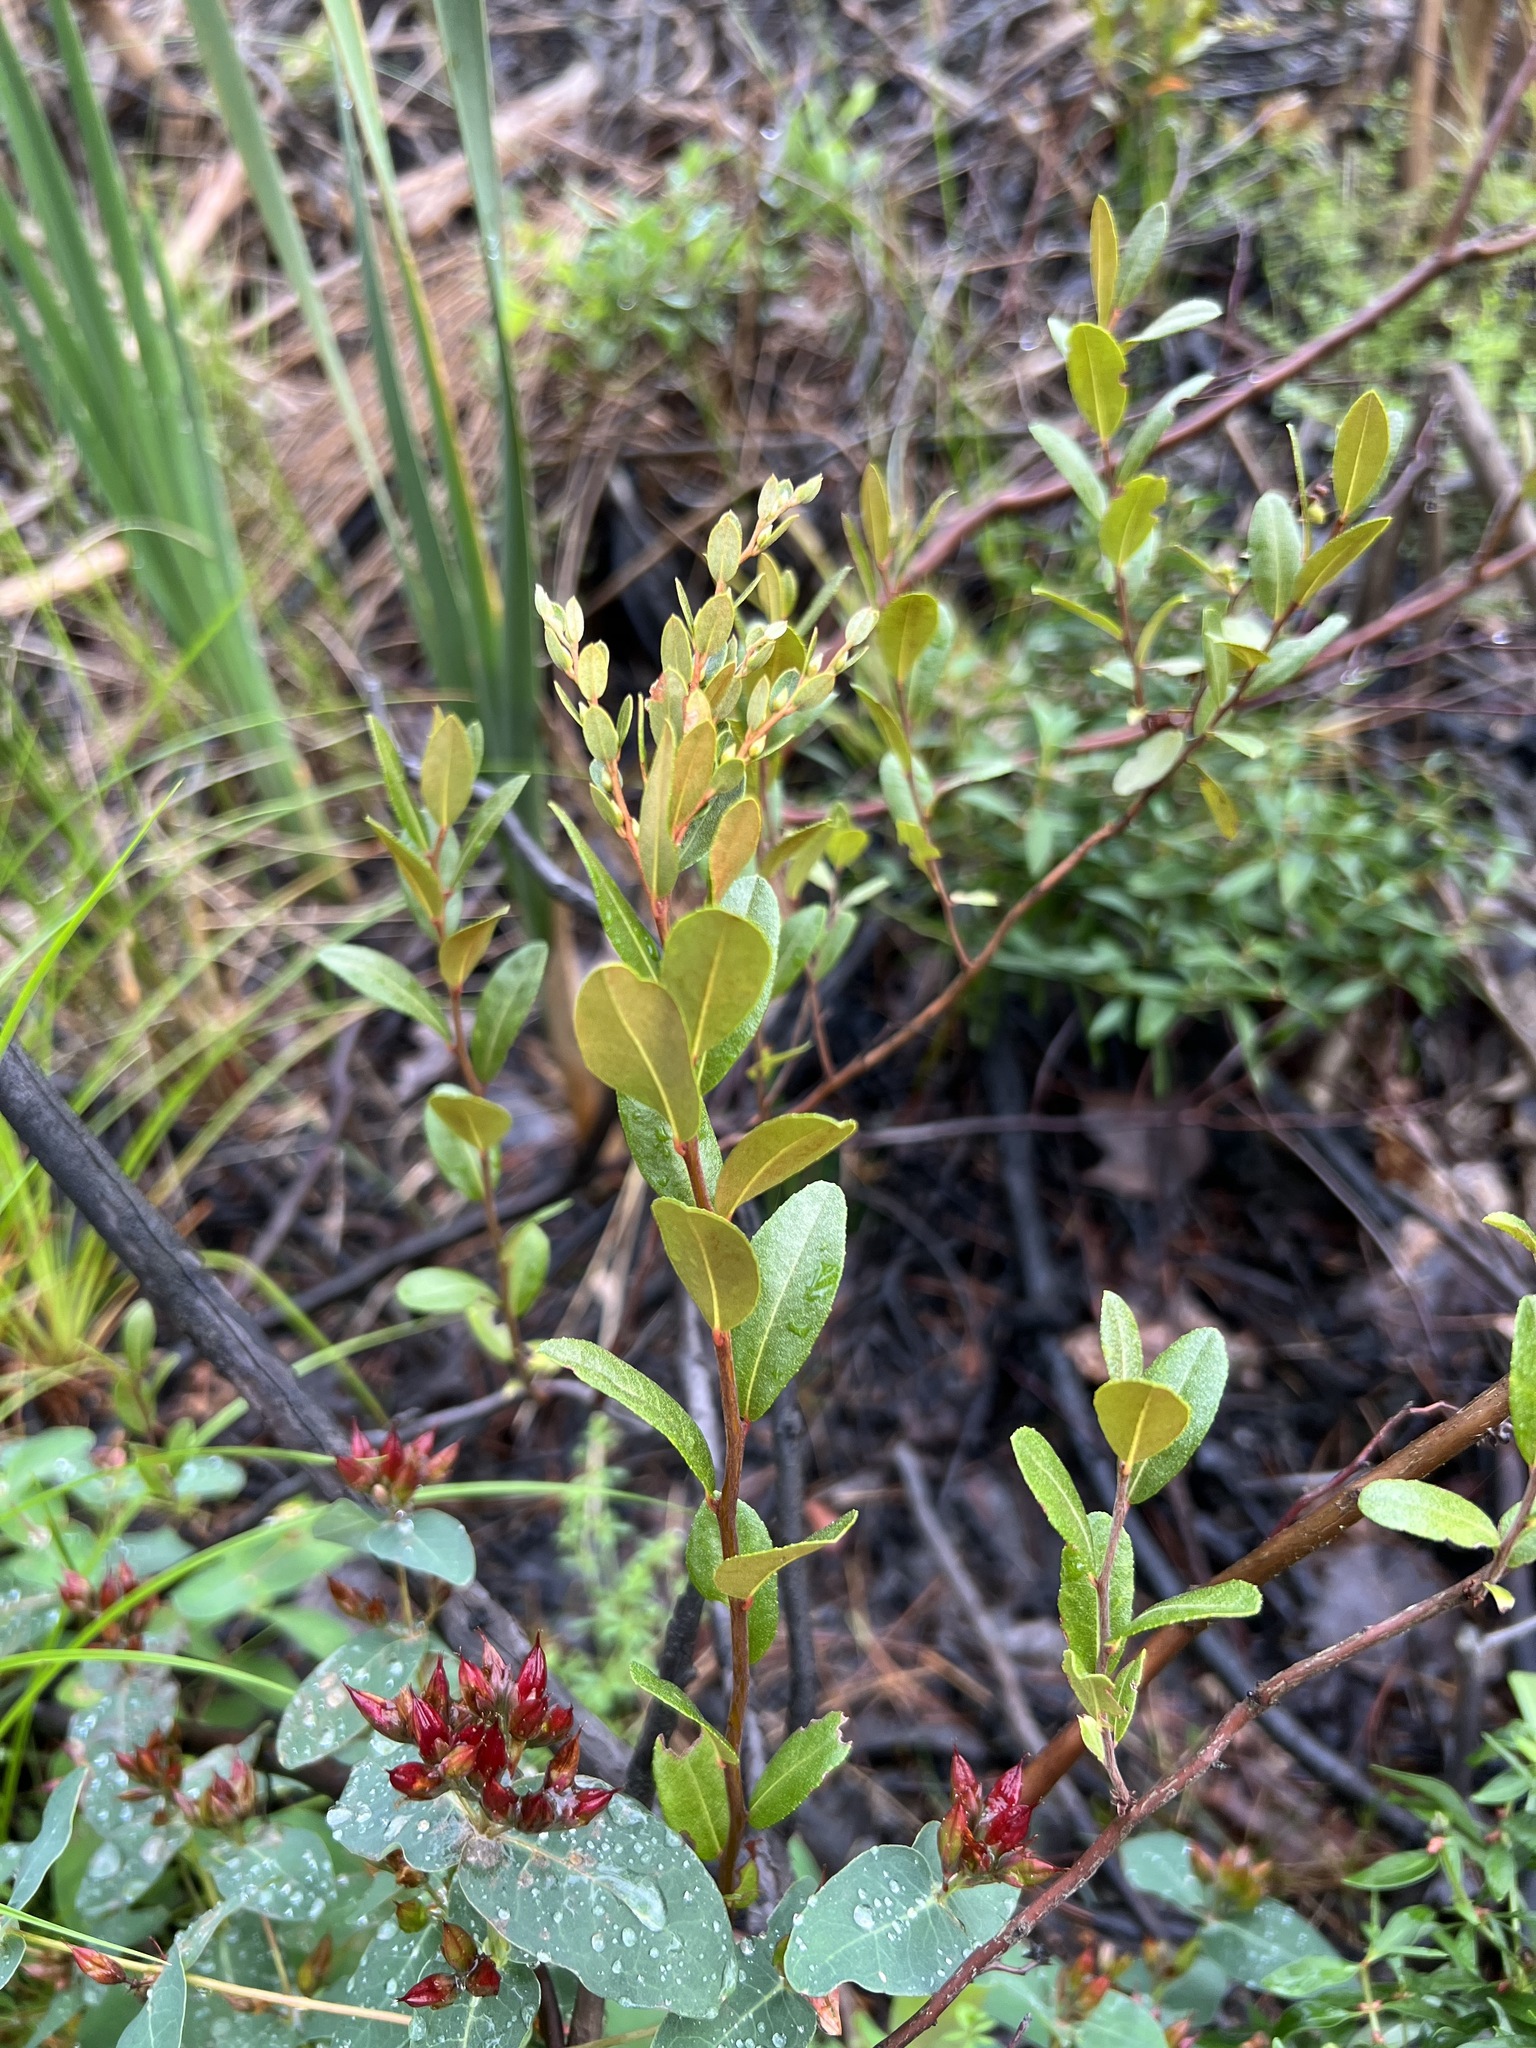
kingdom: Plantae
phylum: Tracheophyta
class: Magnoliopsida
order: Ericales
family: Ericaceae
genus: Chamaedaphne
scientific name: Chamaedaphne calyculata
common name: Leatherleaf
